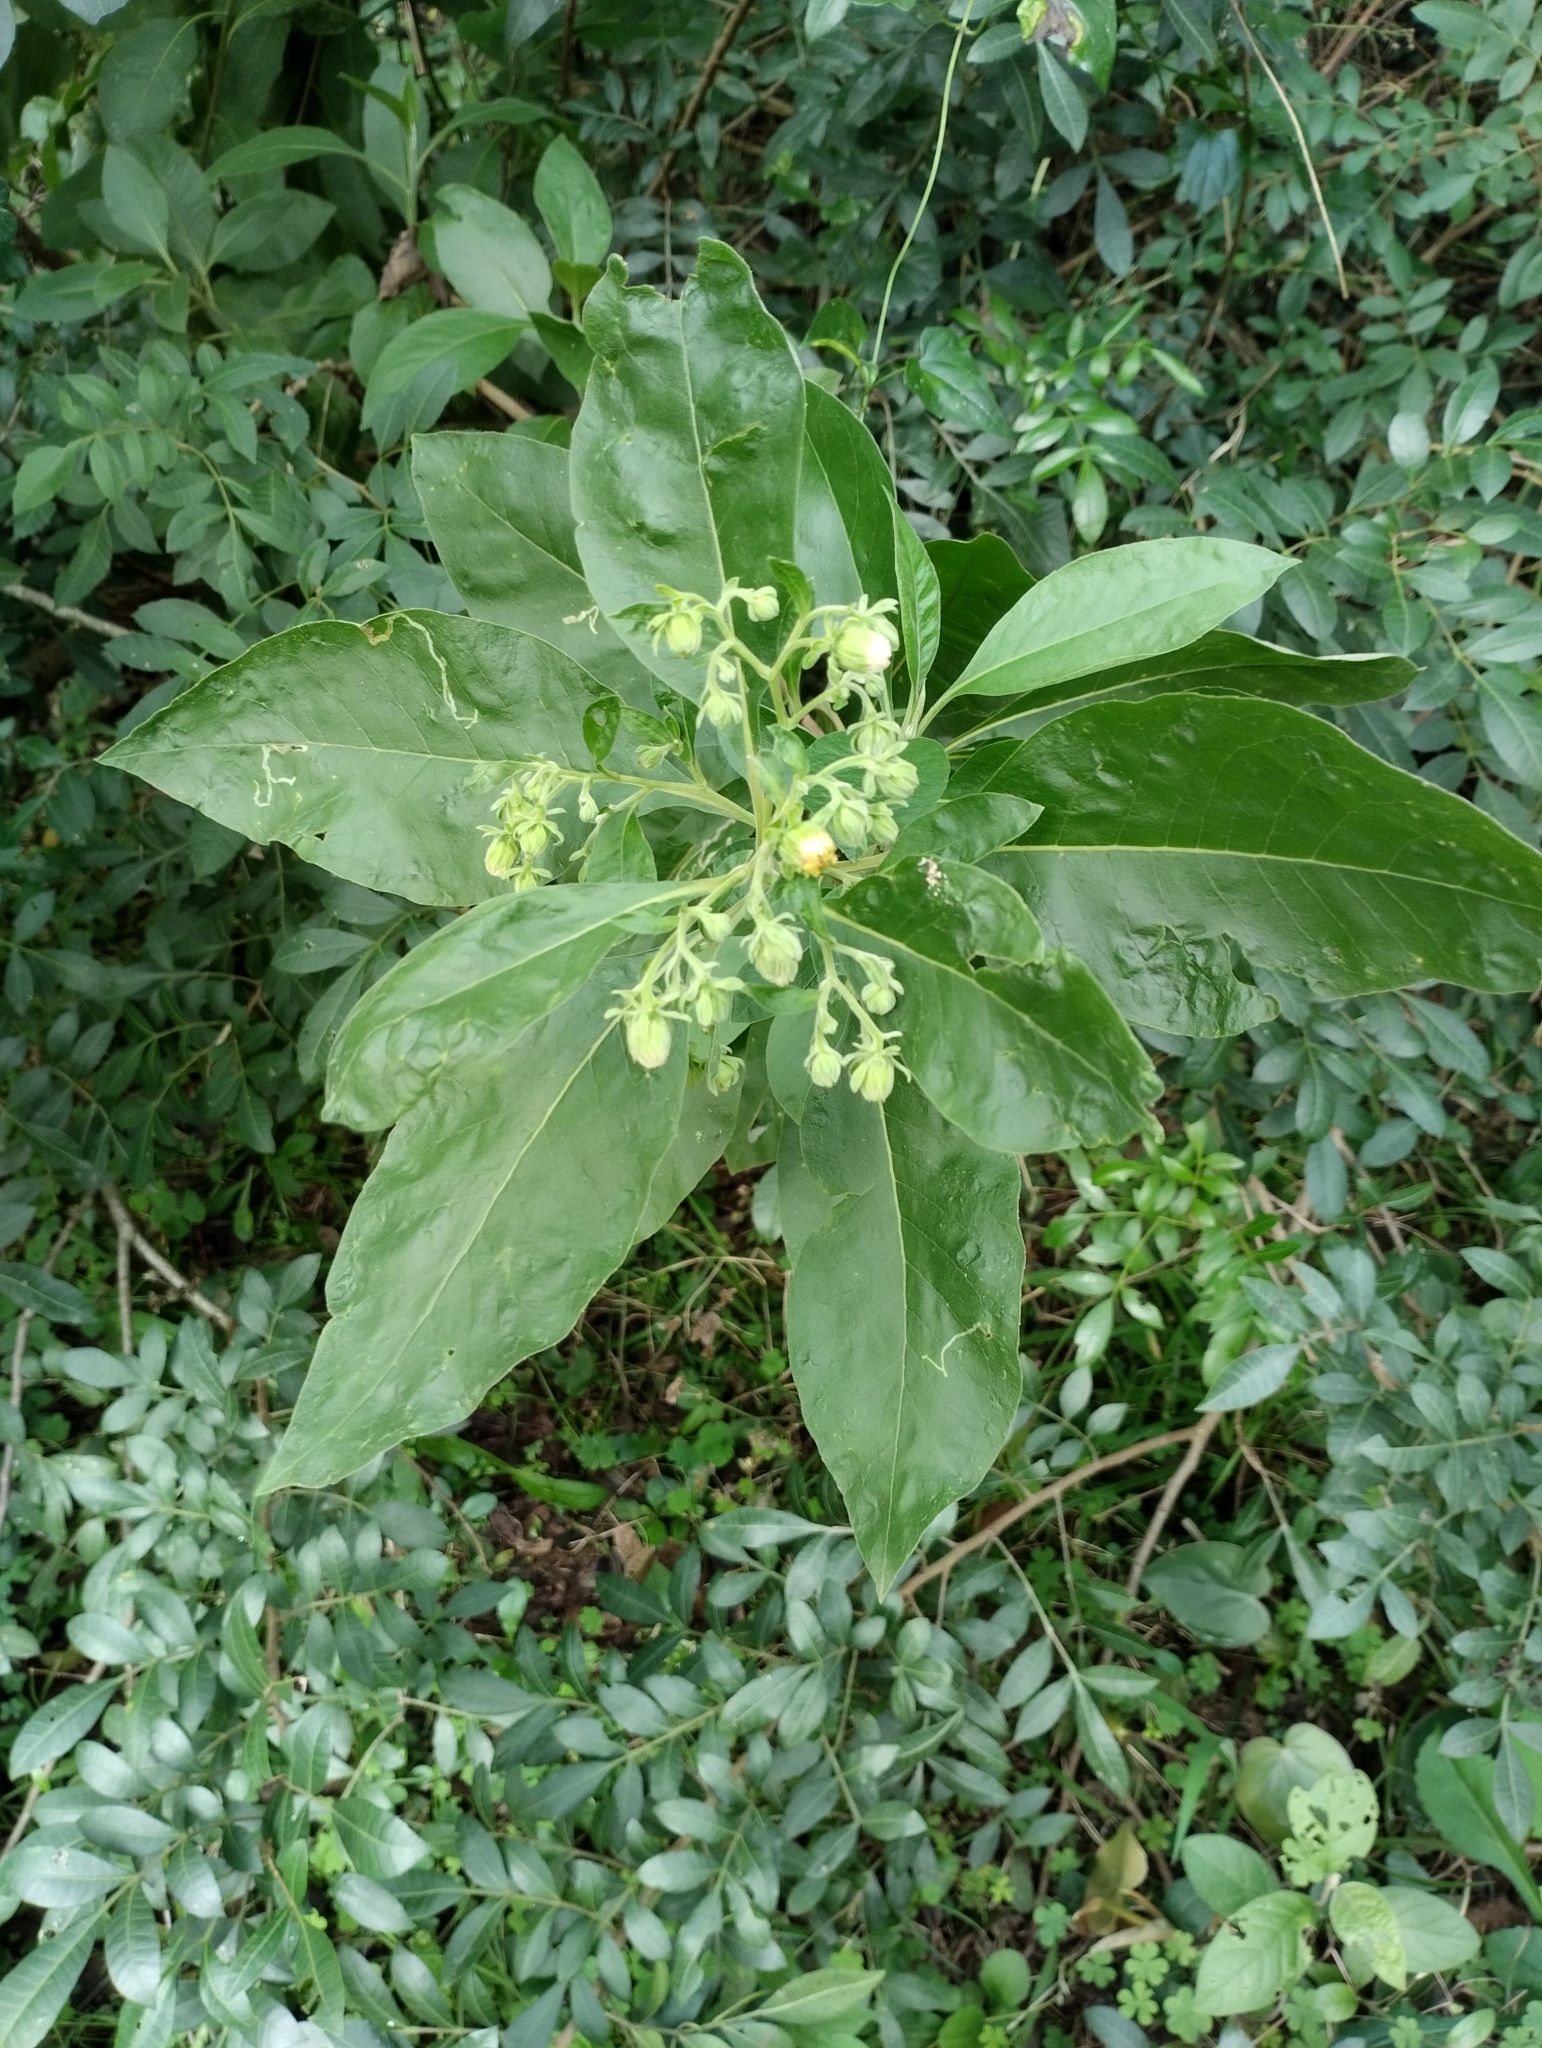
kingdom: Plantae
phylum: Tracheophyta
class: Magnoliopsida
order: Asterales
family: Asteraceae
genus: Trixis
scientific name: Trixis praestans
